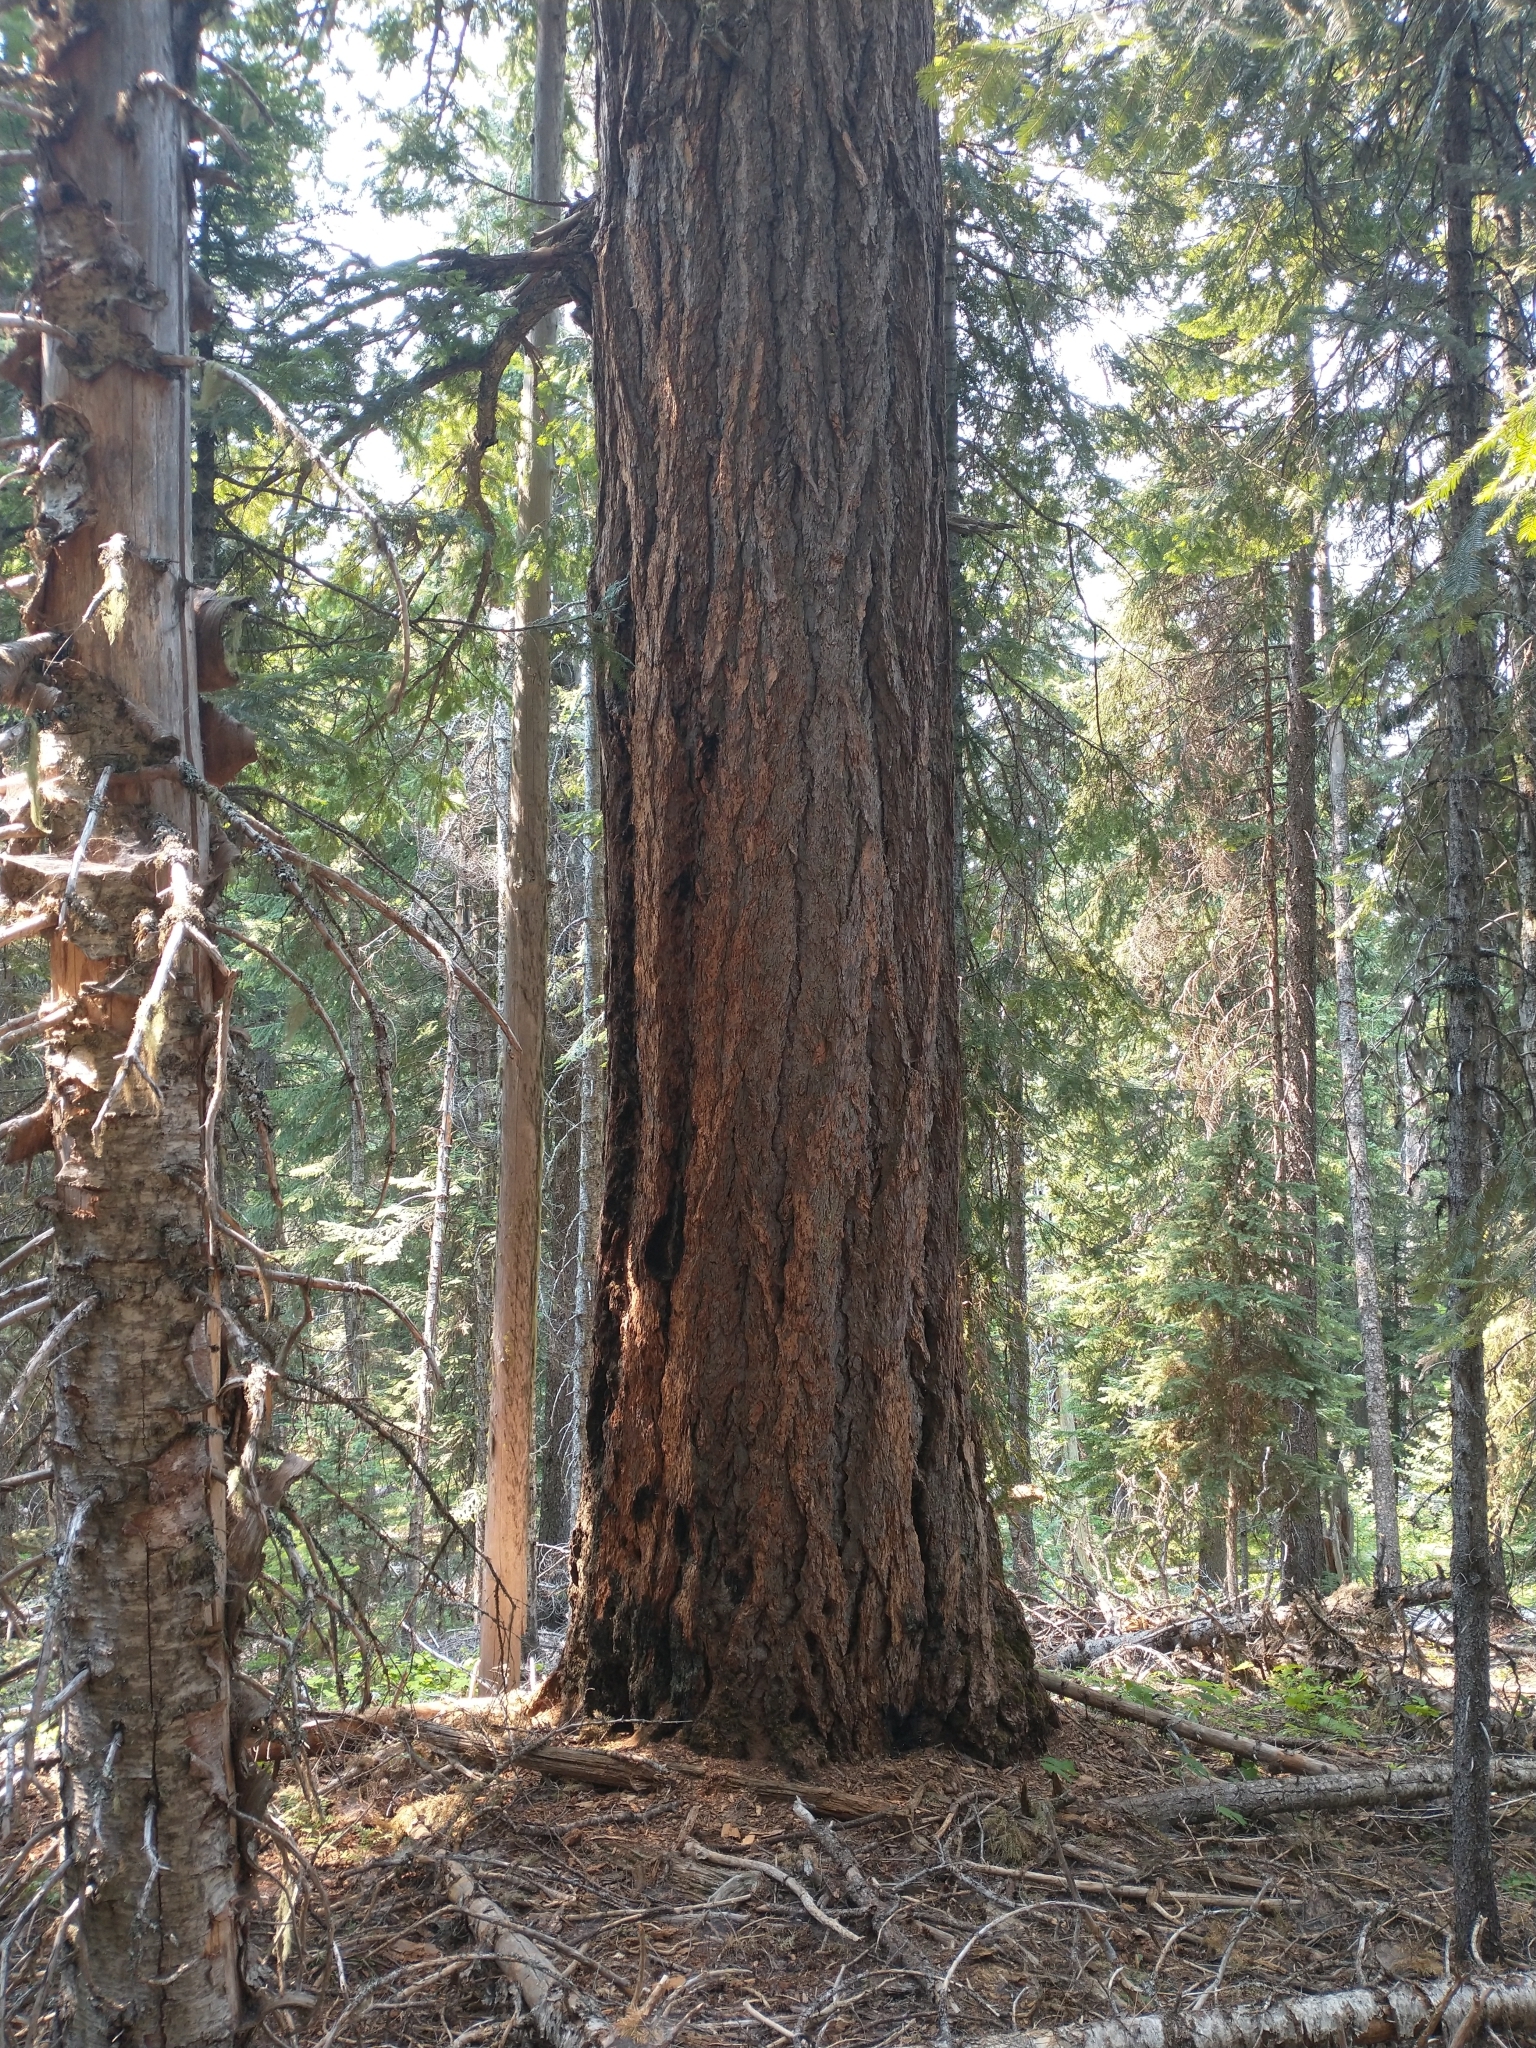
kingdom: Plantae
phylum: Tracheophyta
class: Pinopsida
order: Pinales
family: Pinaceae
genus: Pseudotsuga
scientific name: Pseudotsuga menziesii
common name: Douglas fir
